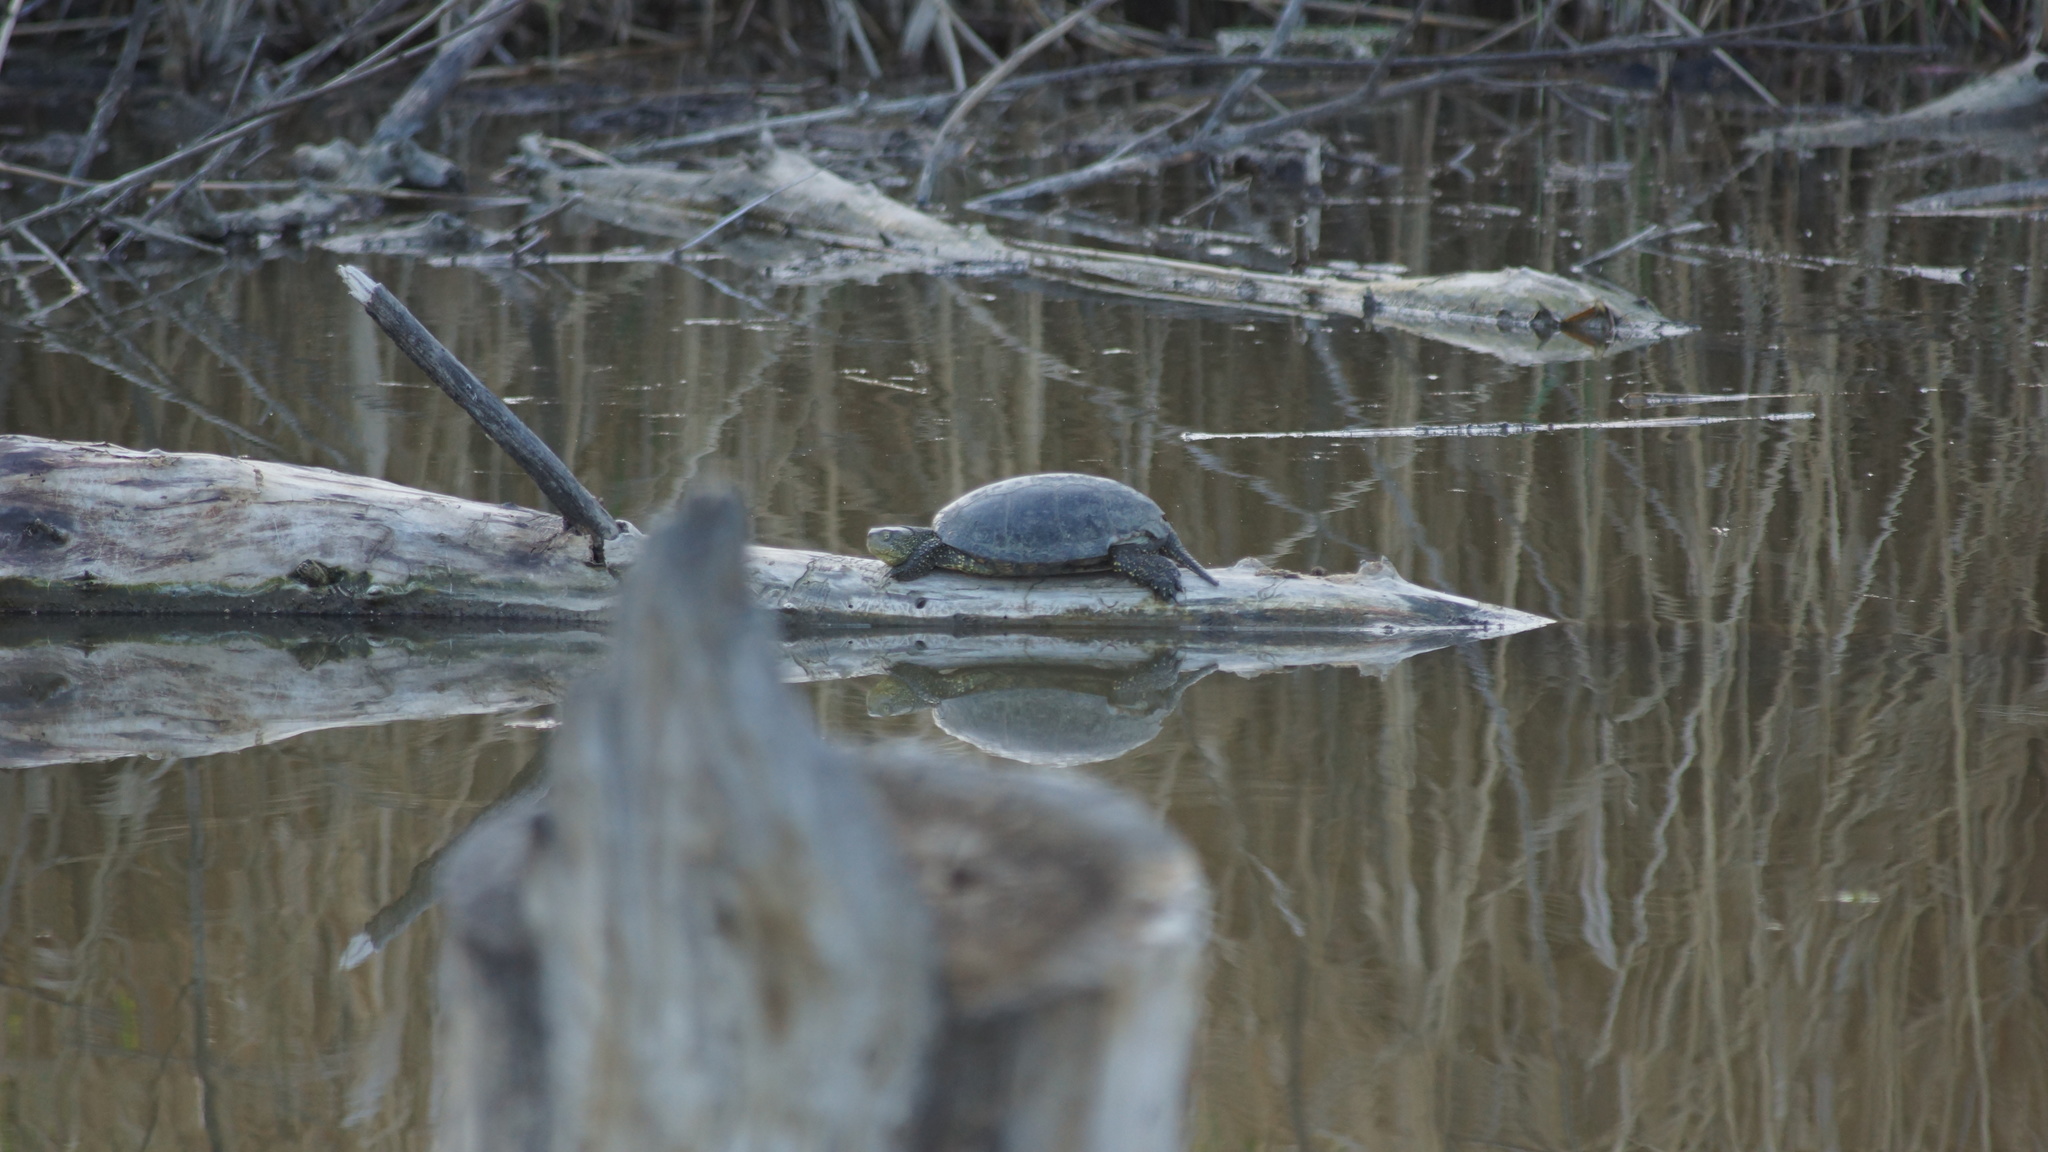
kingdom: Animalia
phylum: Chordata
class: Testudines
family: Emydidae
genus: Emys
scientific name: Emys orbicularis
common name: European pond turtle
